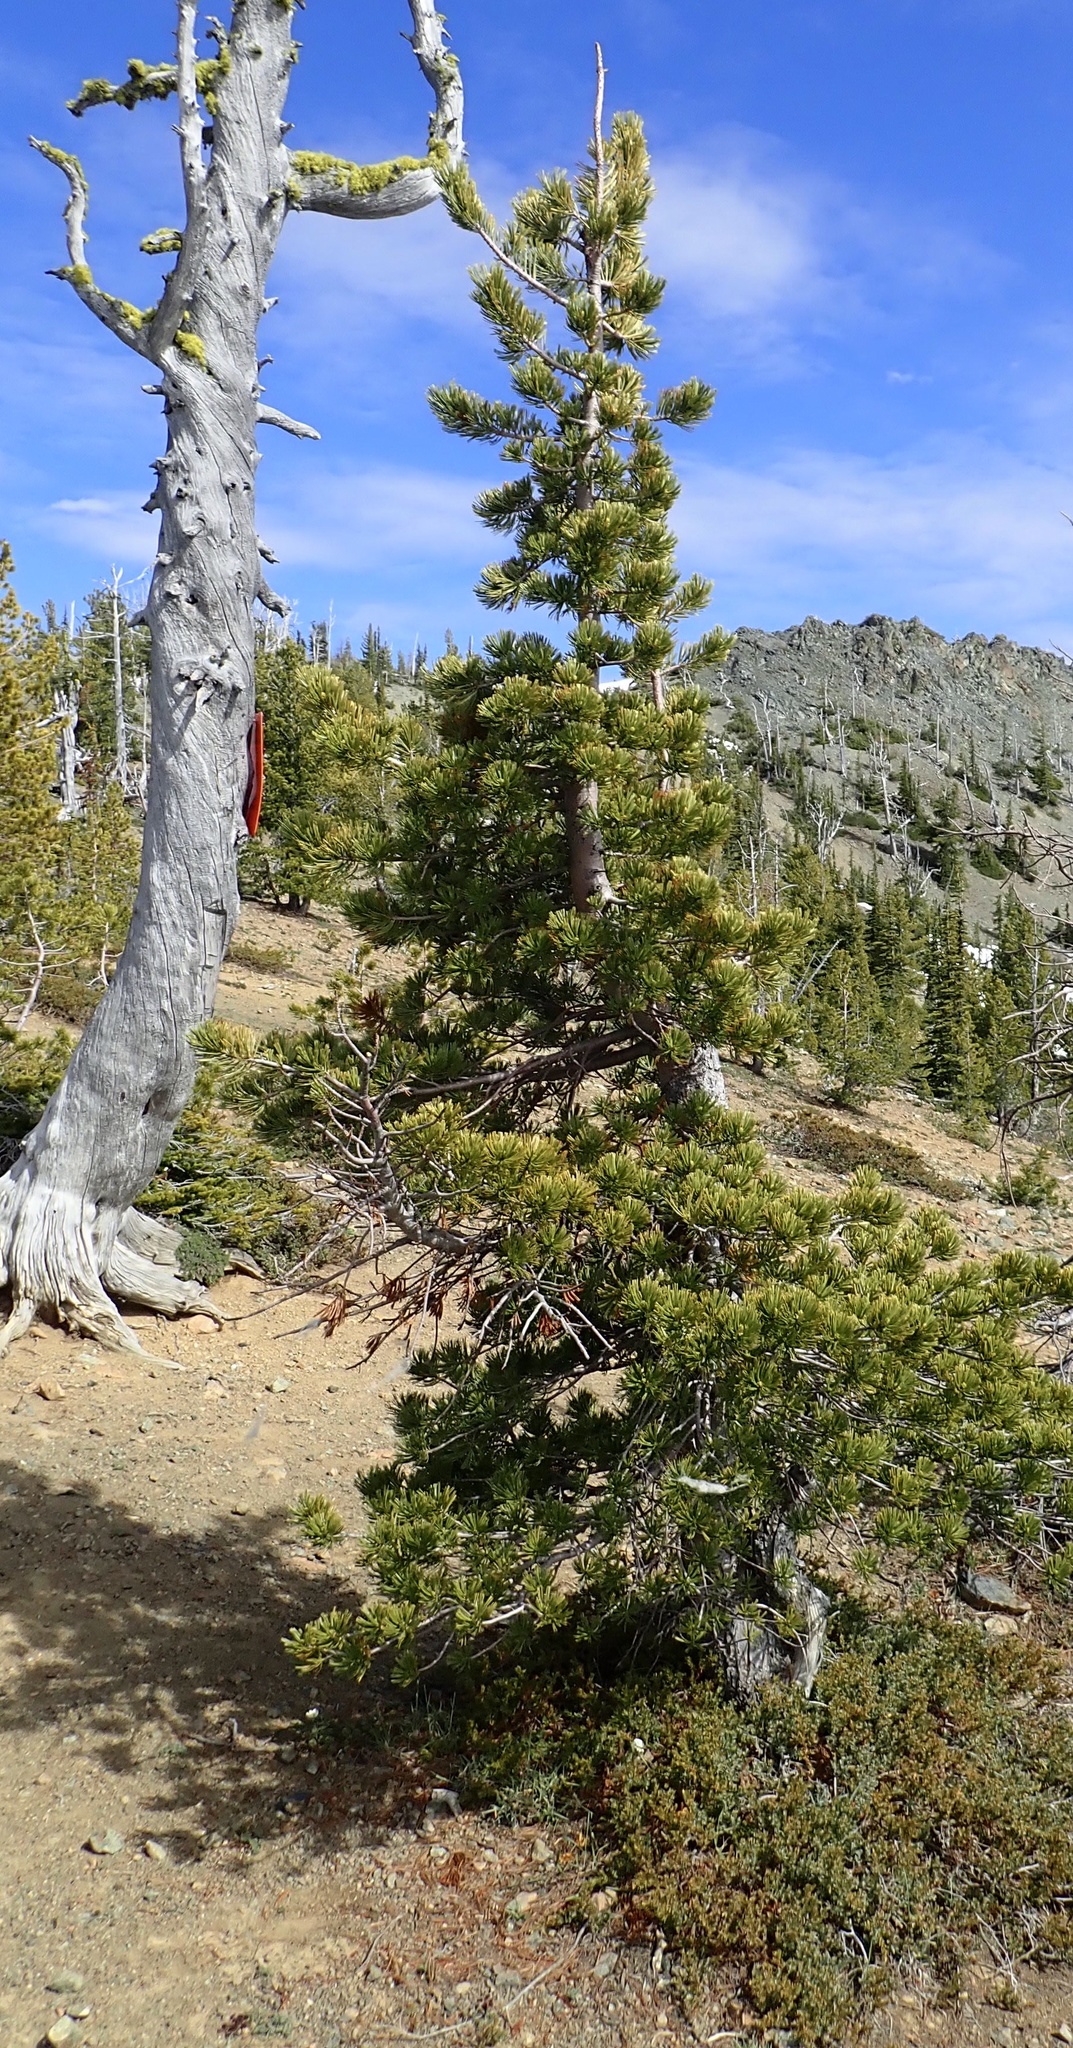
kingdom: Plantae
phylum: Tracheophyta
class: Pinopsida
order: Pinales
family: Pinaceae
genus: Pinus
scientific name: Pinus albicaulis
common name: Whitebark pine
